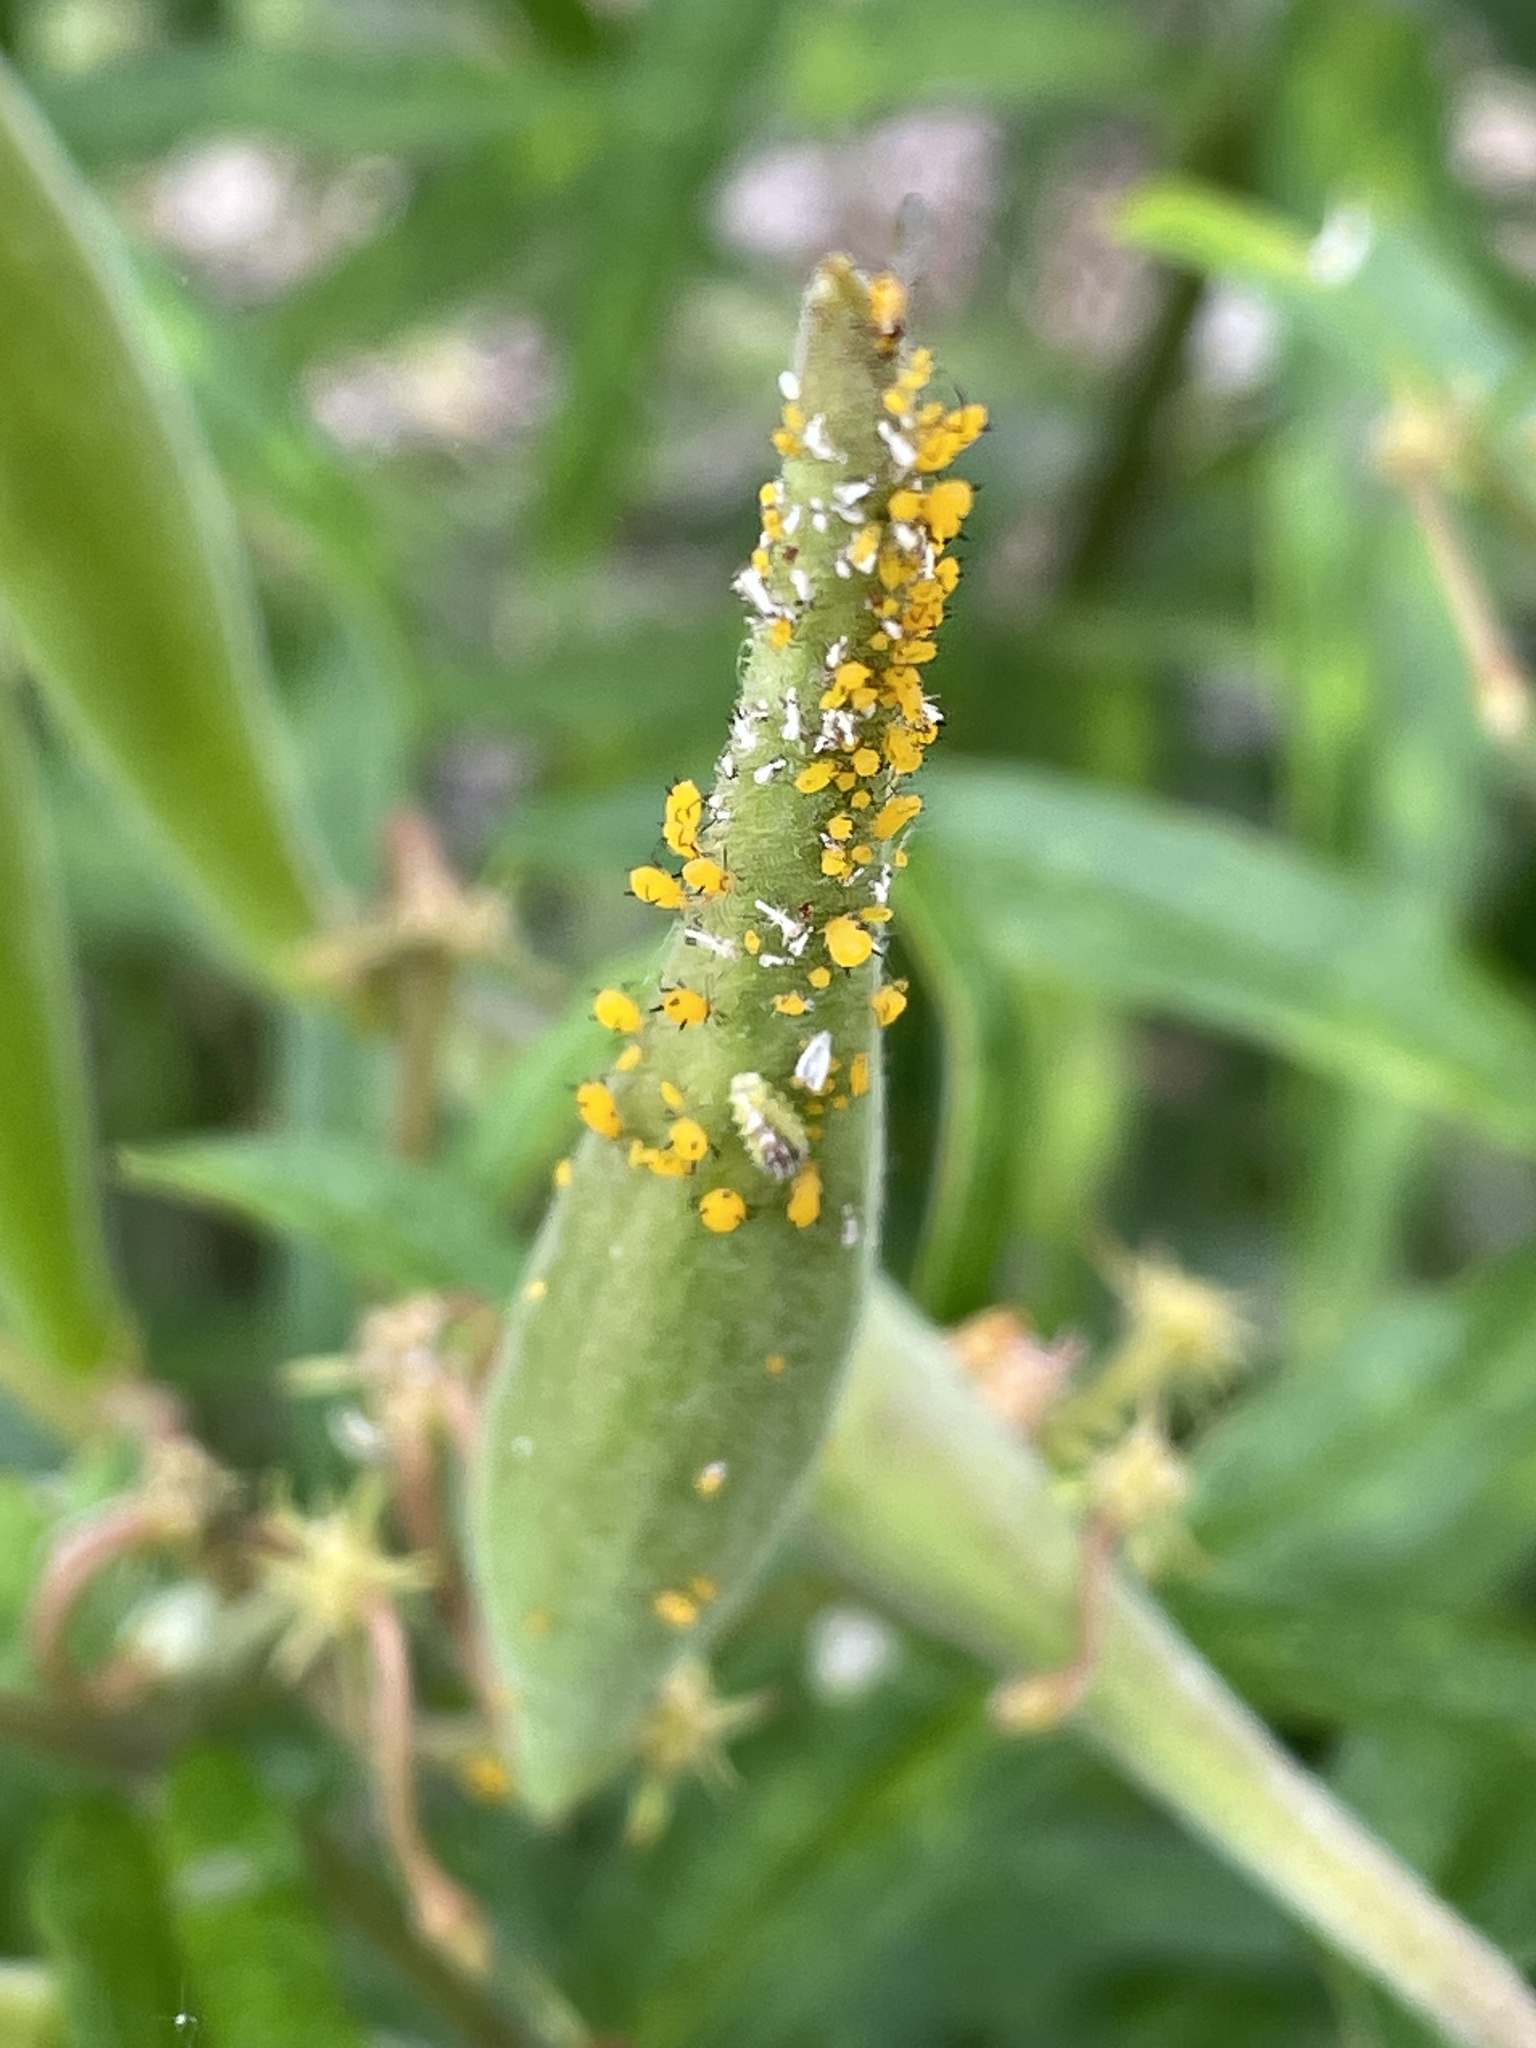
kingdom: Animalia
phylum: Arthropoda
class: Insecta
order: Hemiptera
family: Aphididae
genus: Aphis
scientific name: Aphis nerii
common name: Oleander aphid
